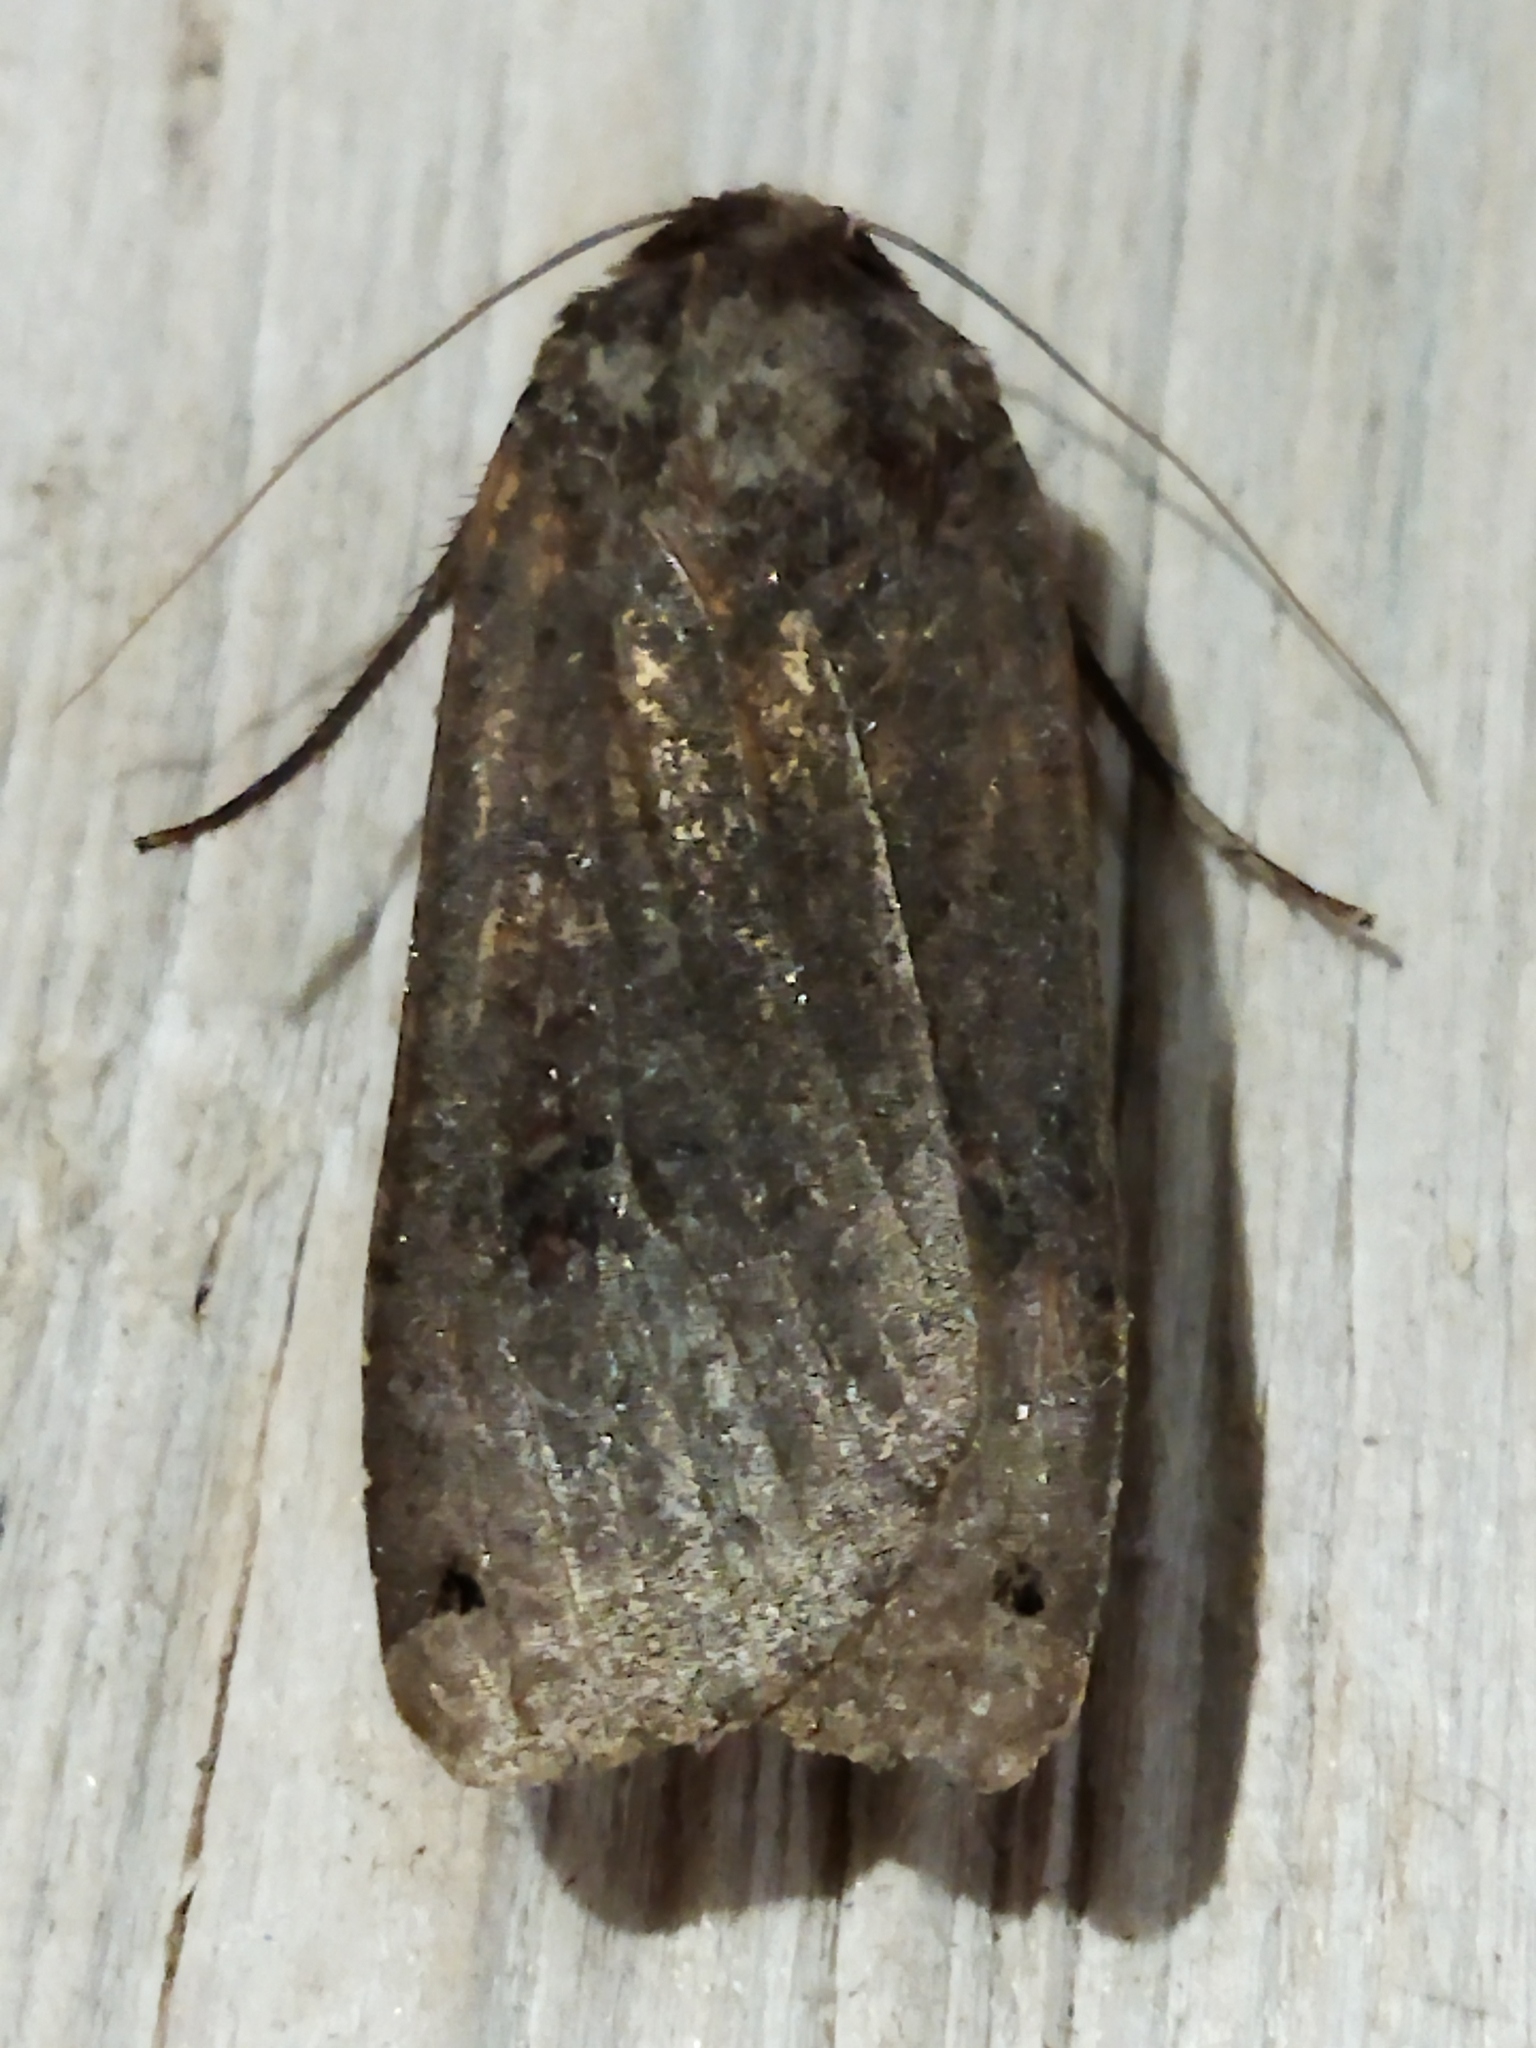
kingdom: Animalia
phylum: Arthropoda
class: Insecta
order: Lepidoptera
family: Noctuidae
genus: Noctua
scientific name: Noctua pronuba
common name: Large yellow underwing
